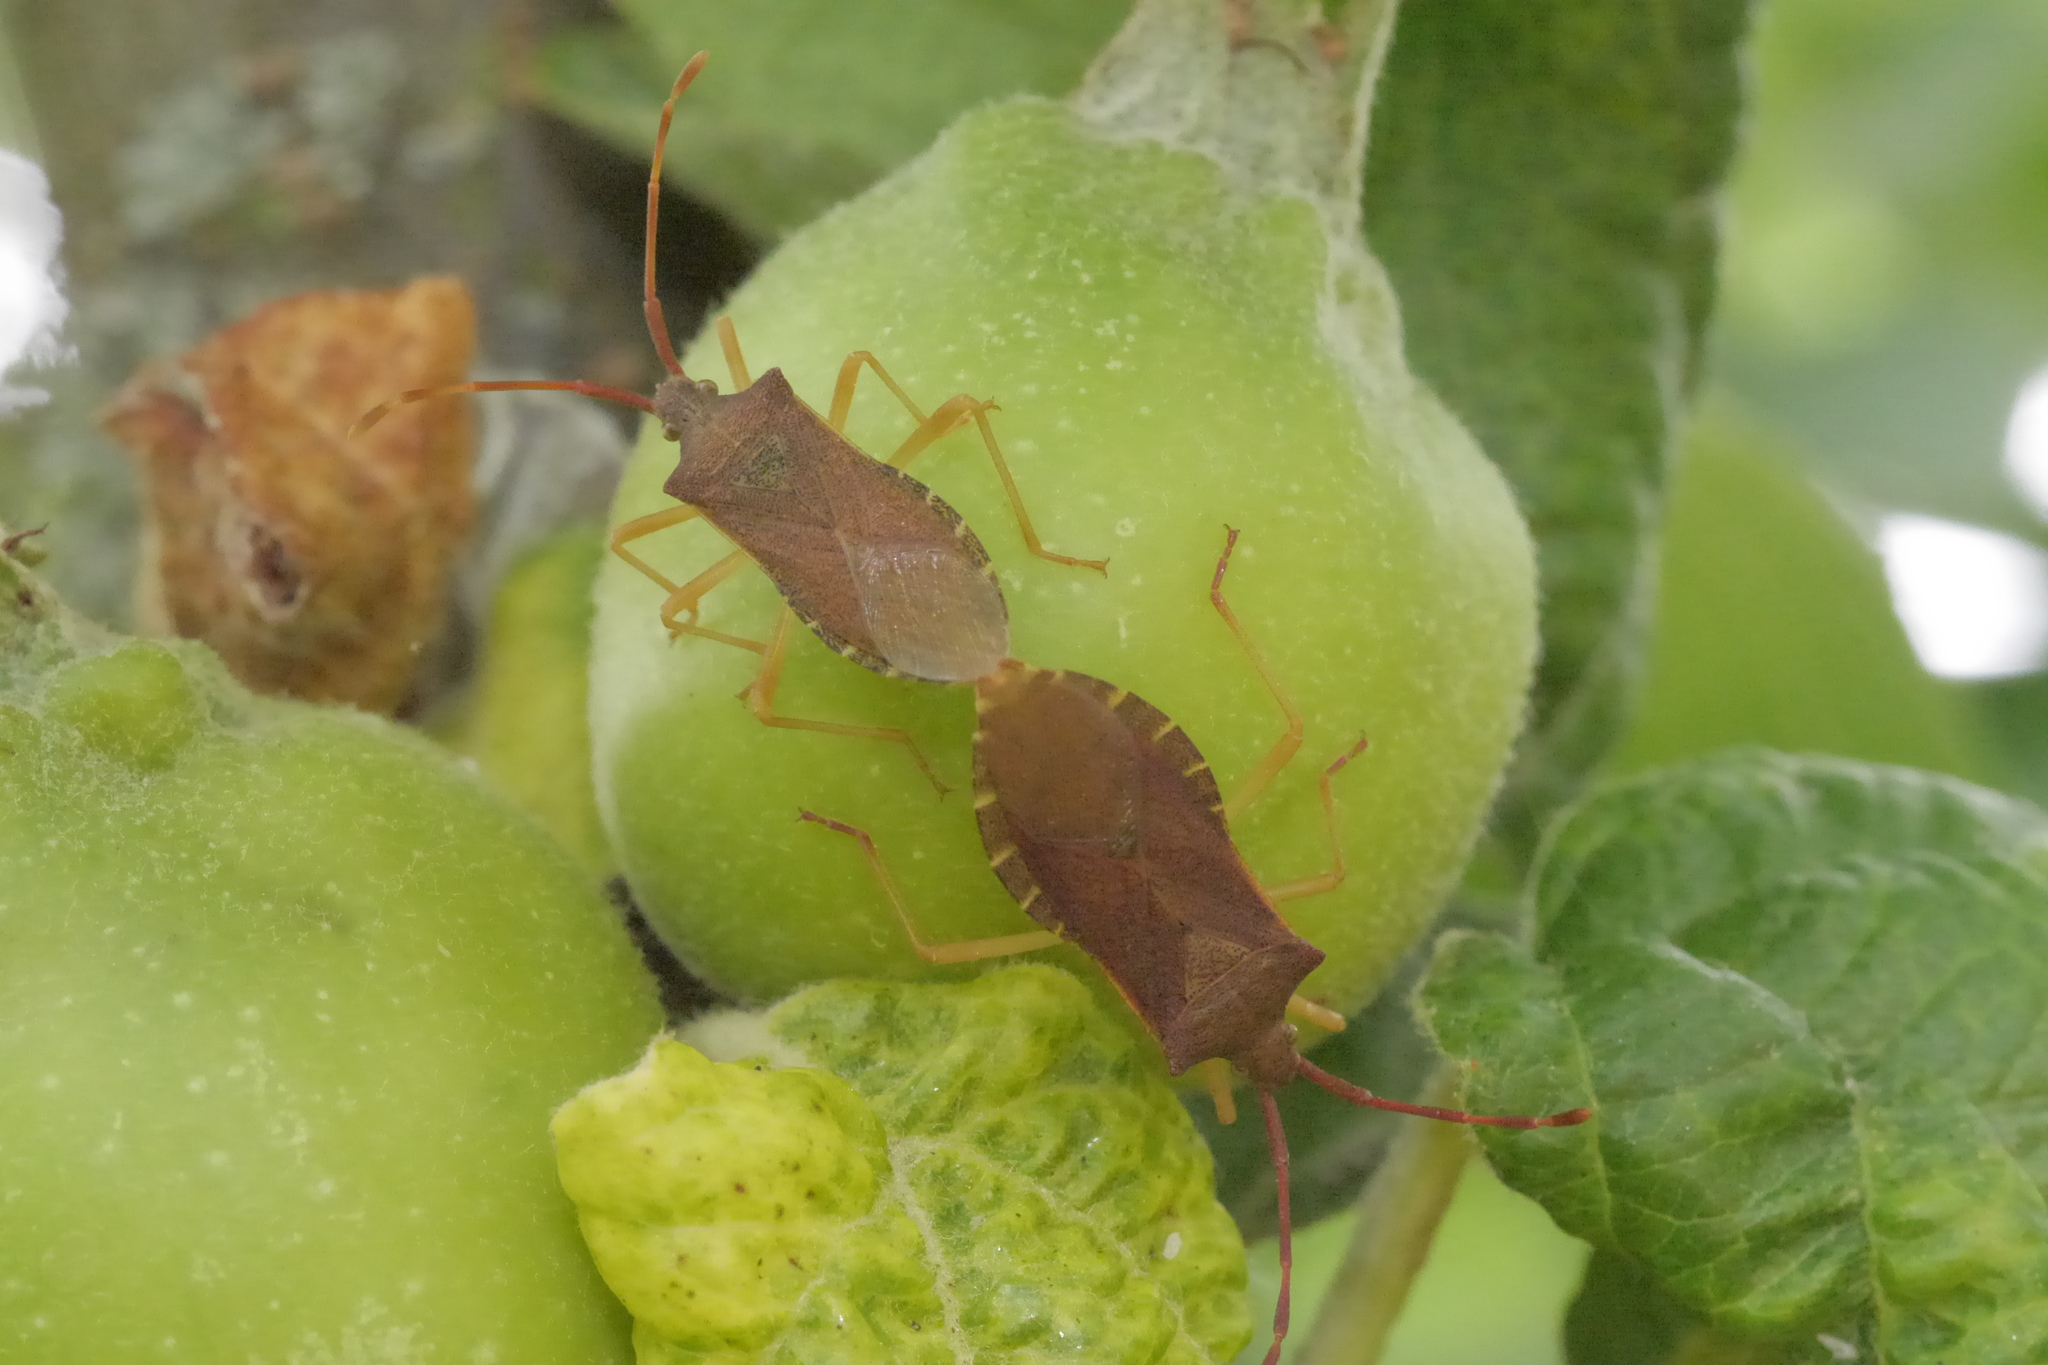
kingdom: Animalia
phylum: Arthropoda
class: Insecta
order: Hemiptera
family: Coreidae
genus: Gonocerus
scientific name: Gonocerus acuteangulatus
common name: Box bug
